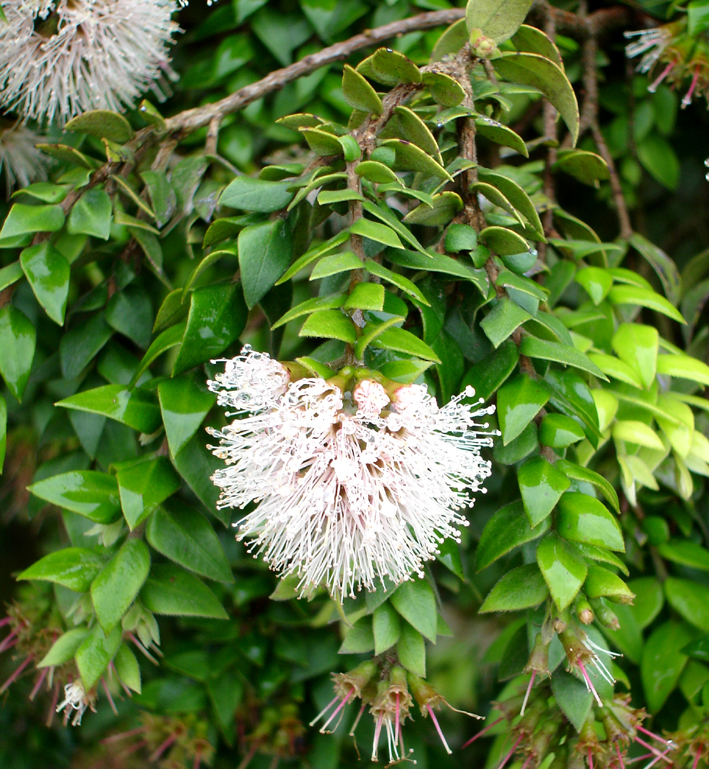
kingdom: Plantae
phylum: Tracheophyta
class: Magnoliopsida
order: Myrtales
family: Myrtaceae
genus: Metrosideros
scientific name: Metrosideros colensoi
